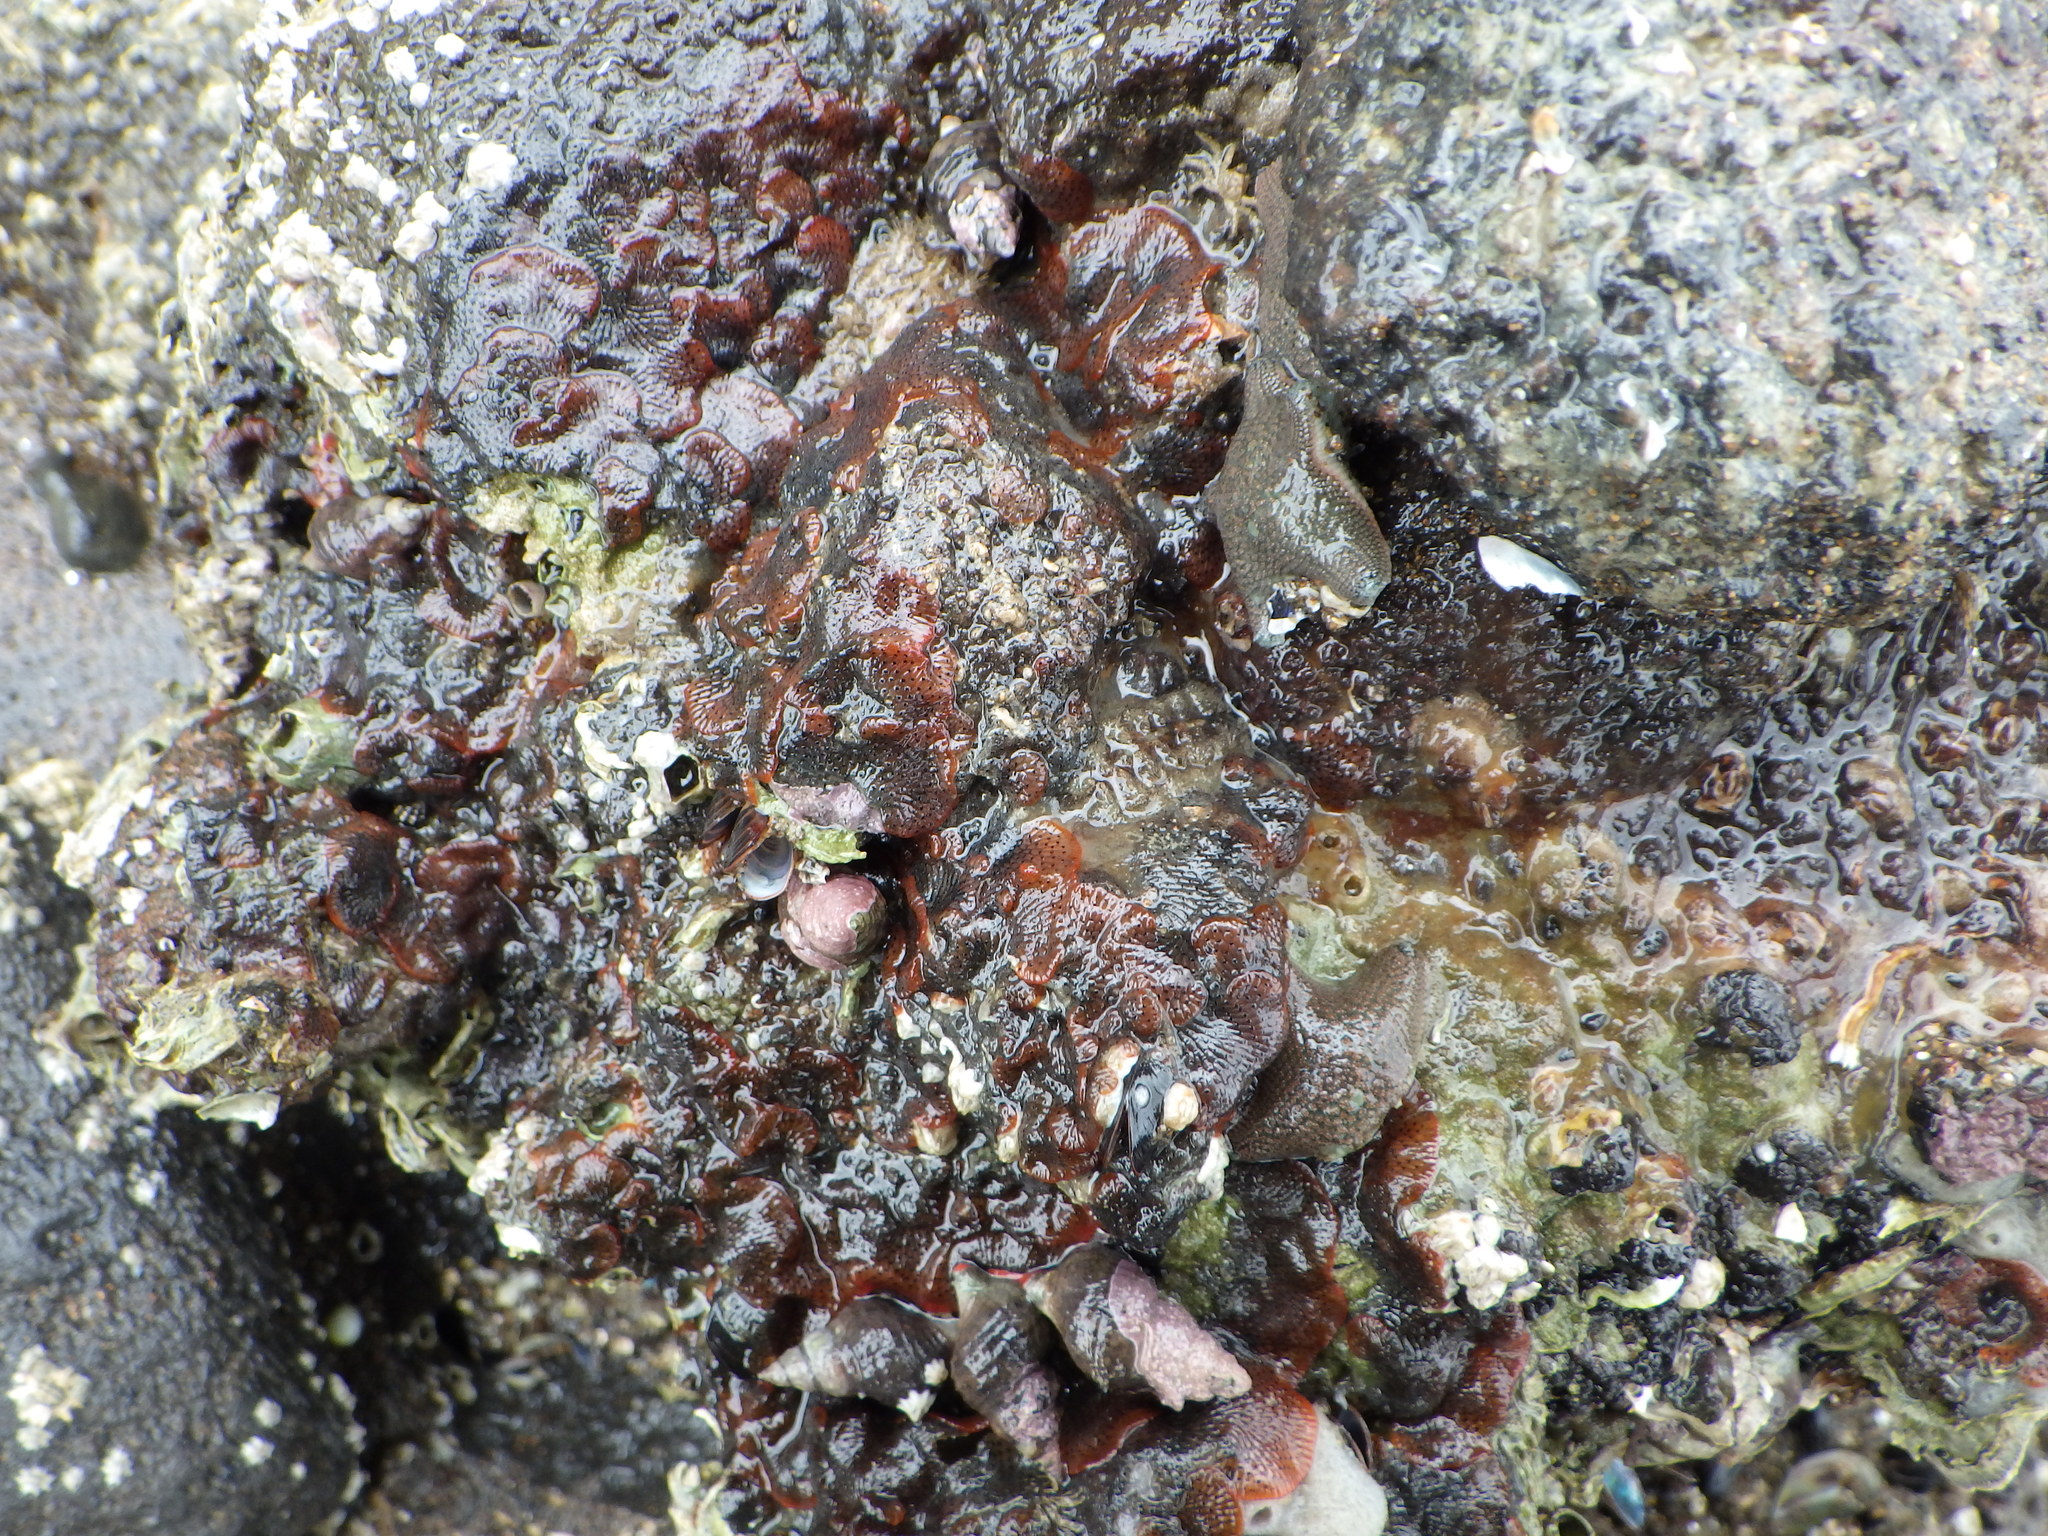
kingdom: Animalia
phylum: Mollusca
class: Gastropoda
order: Neogastropoda
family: Fasciolariidae
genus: Taron
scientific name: Taron dubius
